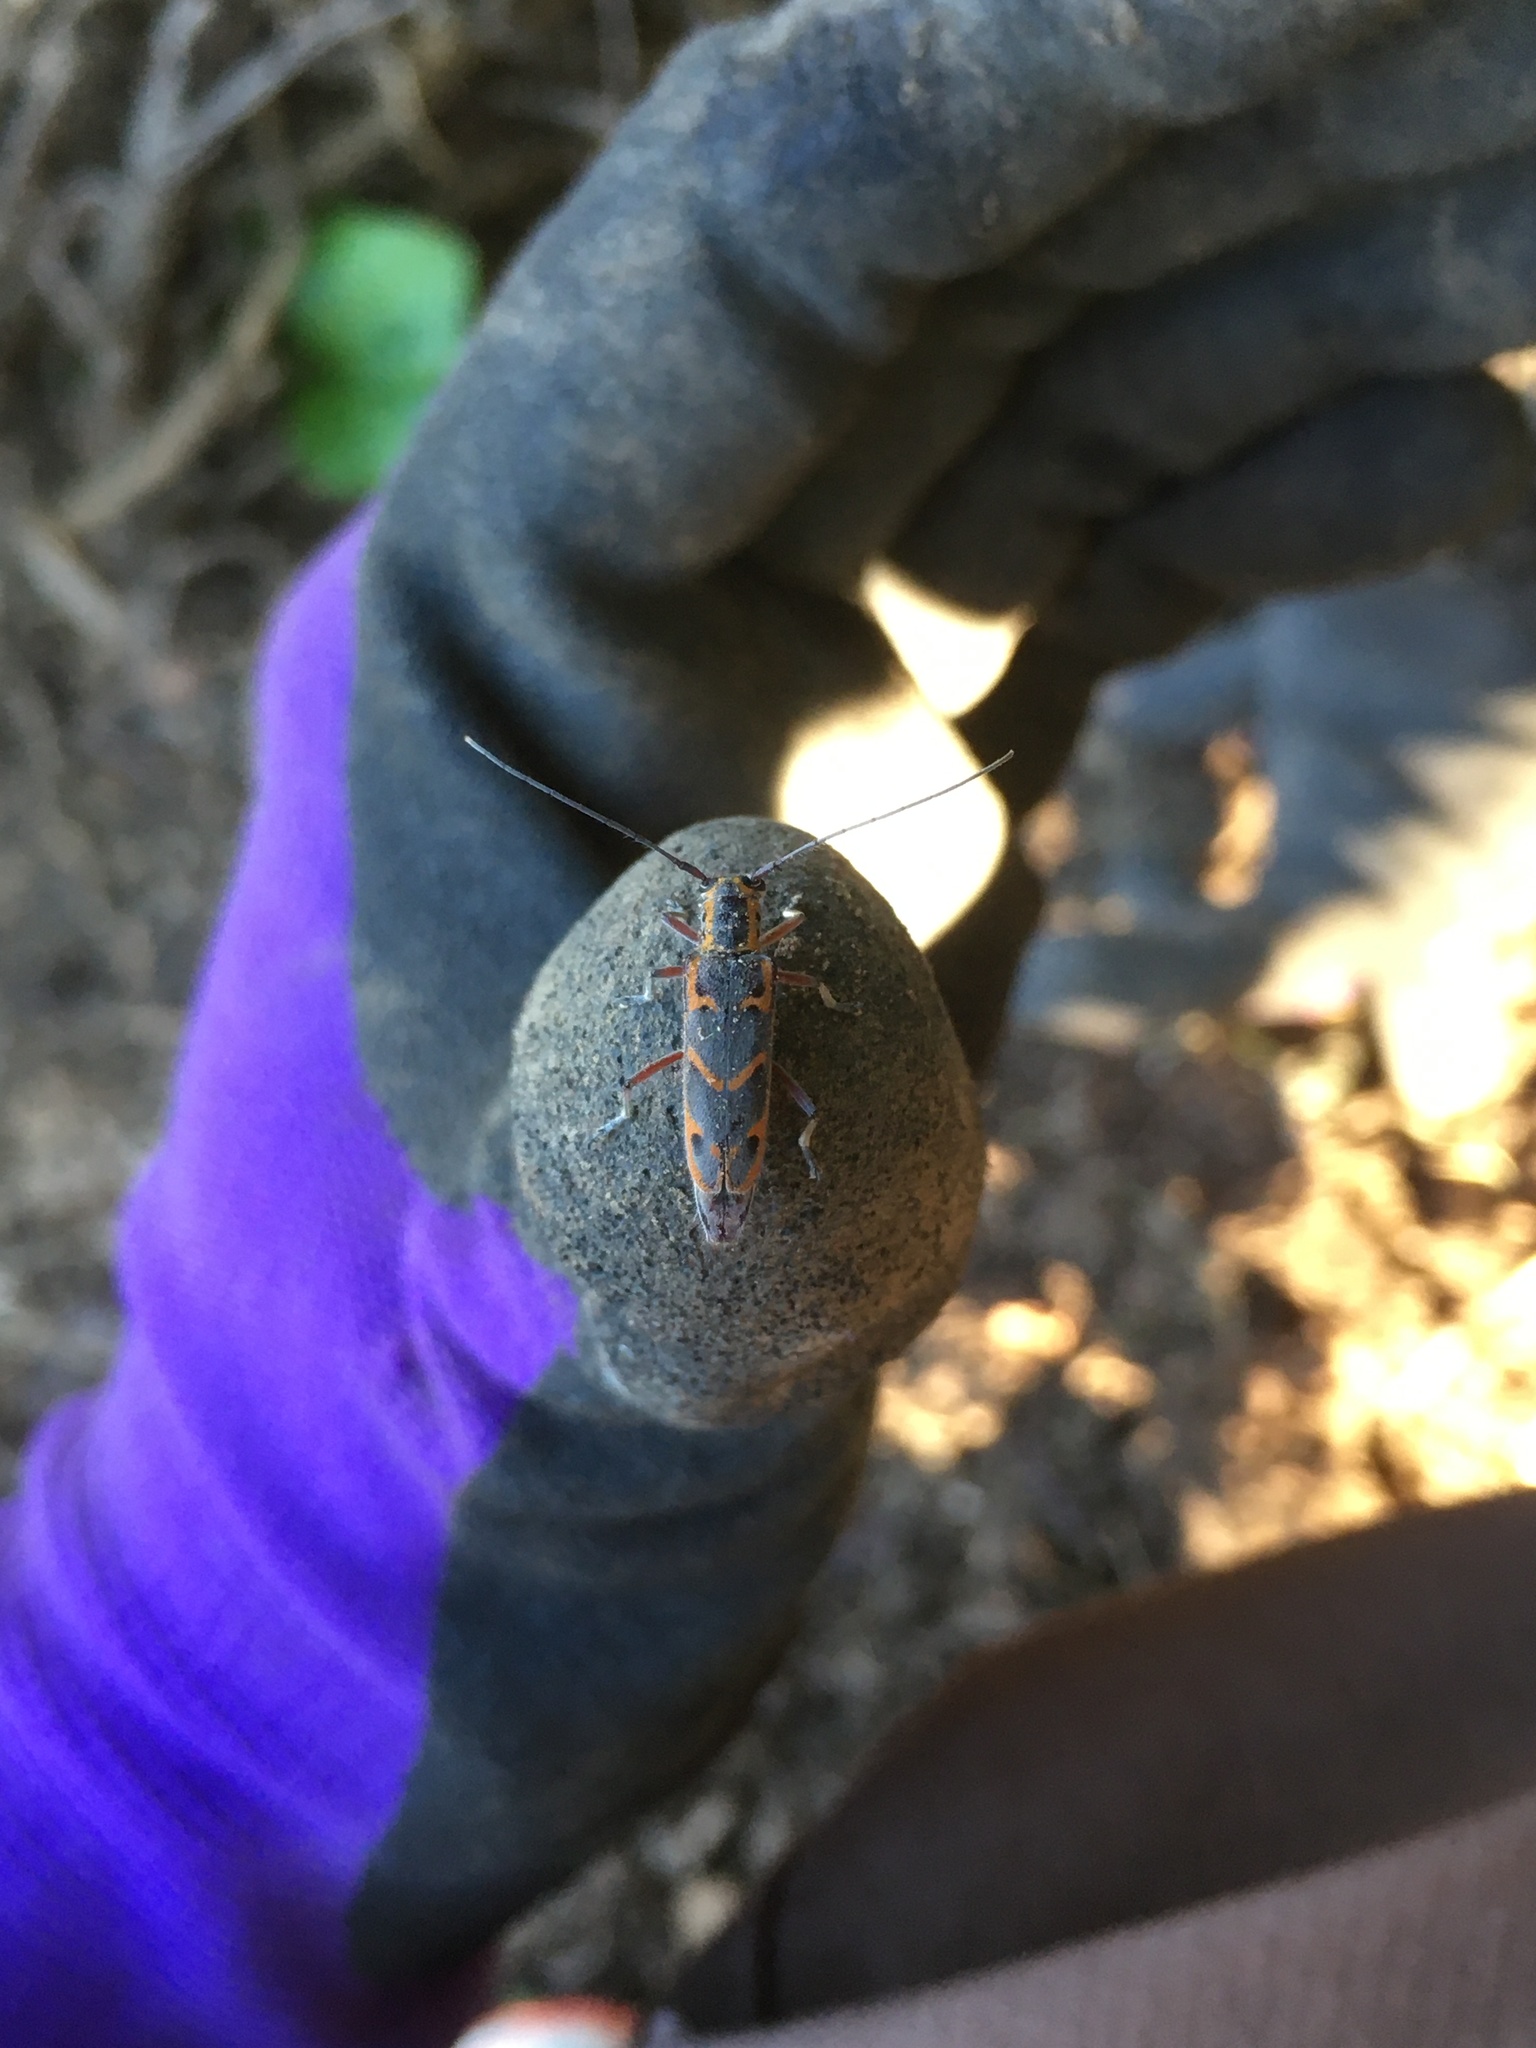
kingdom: Animalia
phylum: Arthropoda
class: Insecta
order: Coleoptera
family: Cerambycidae
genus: Saperda
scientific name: Saperda tridentata
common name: Elm borer
